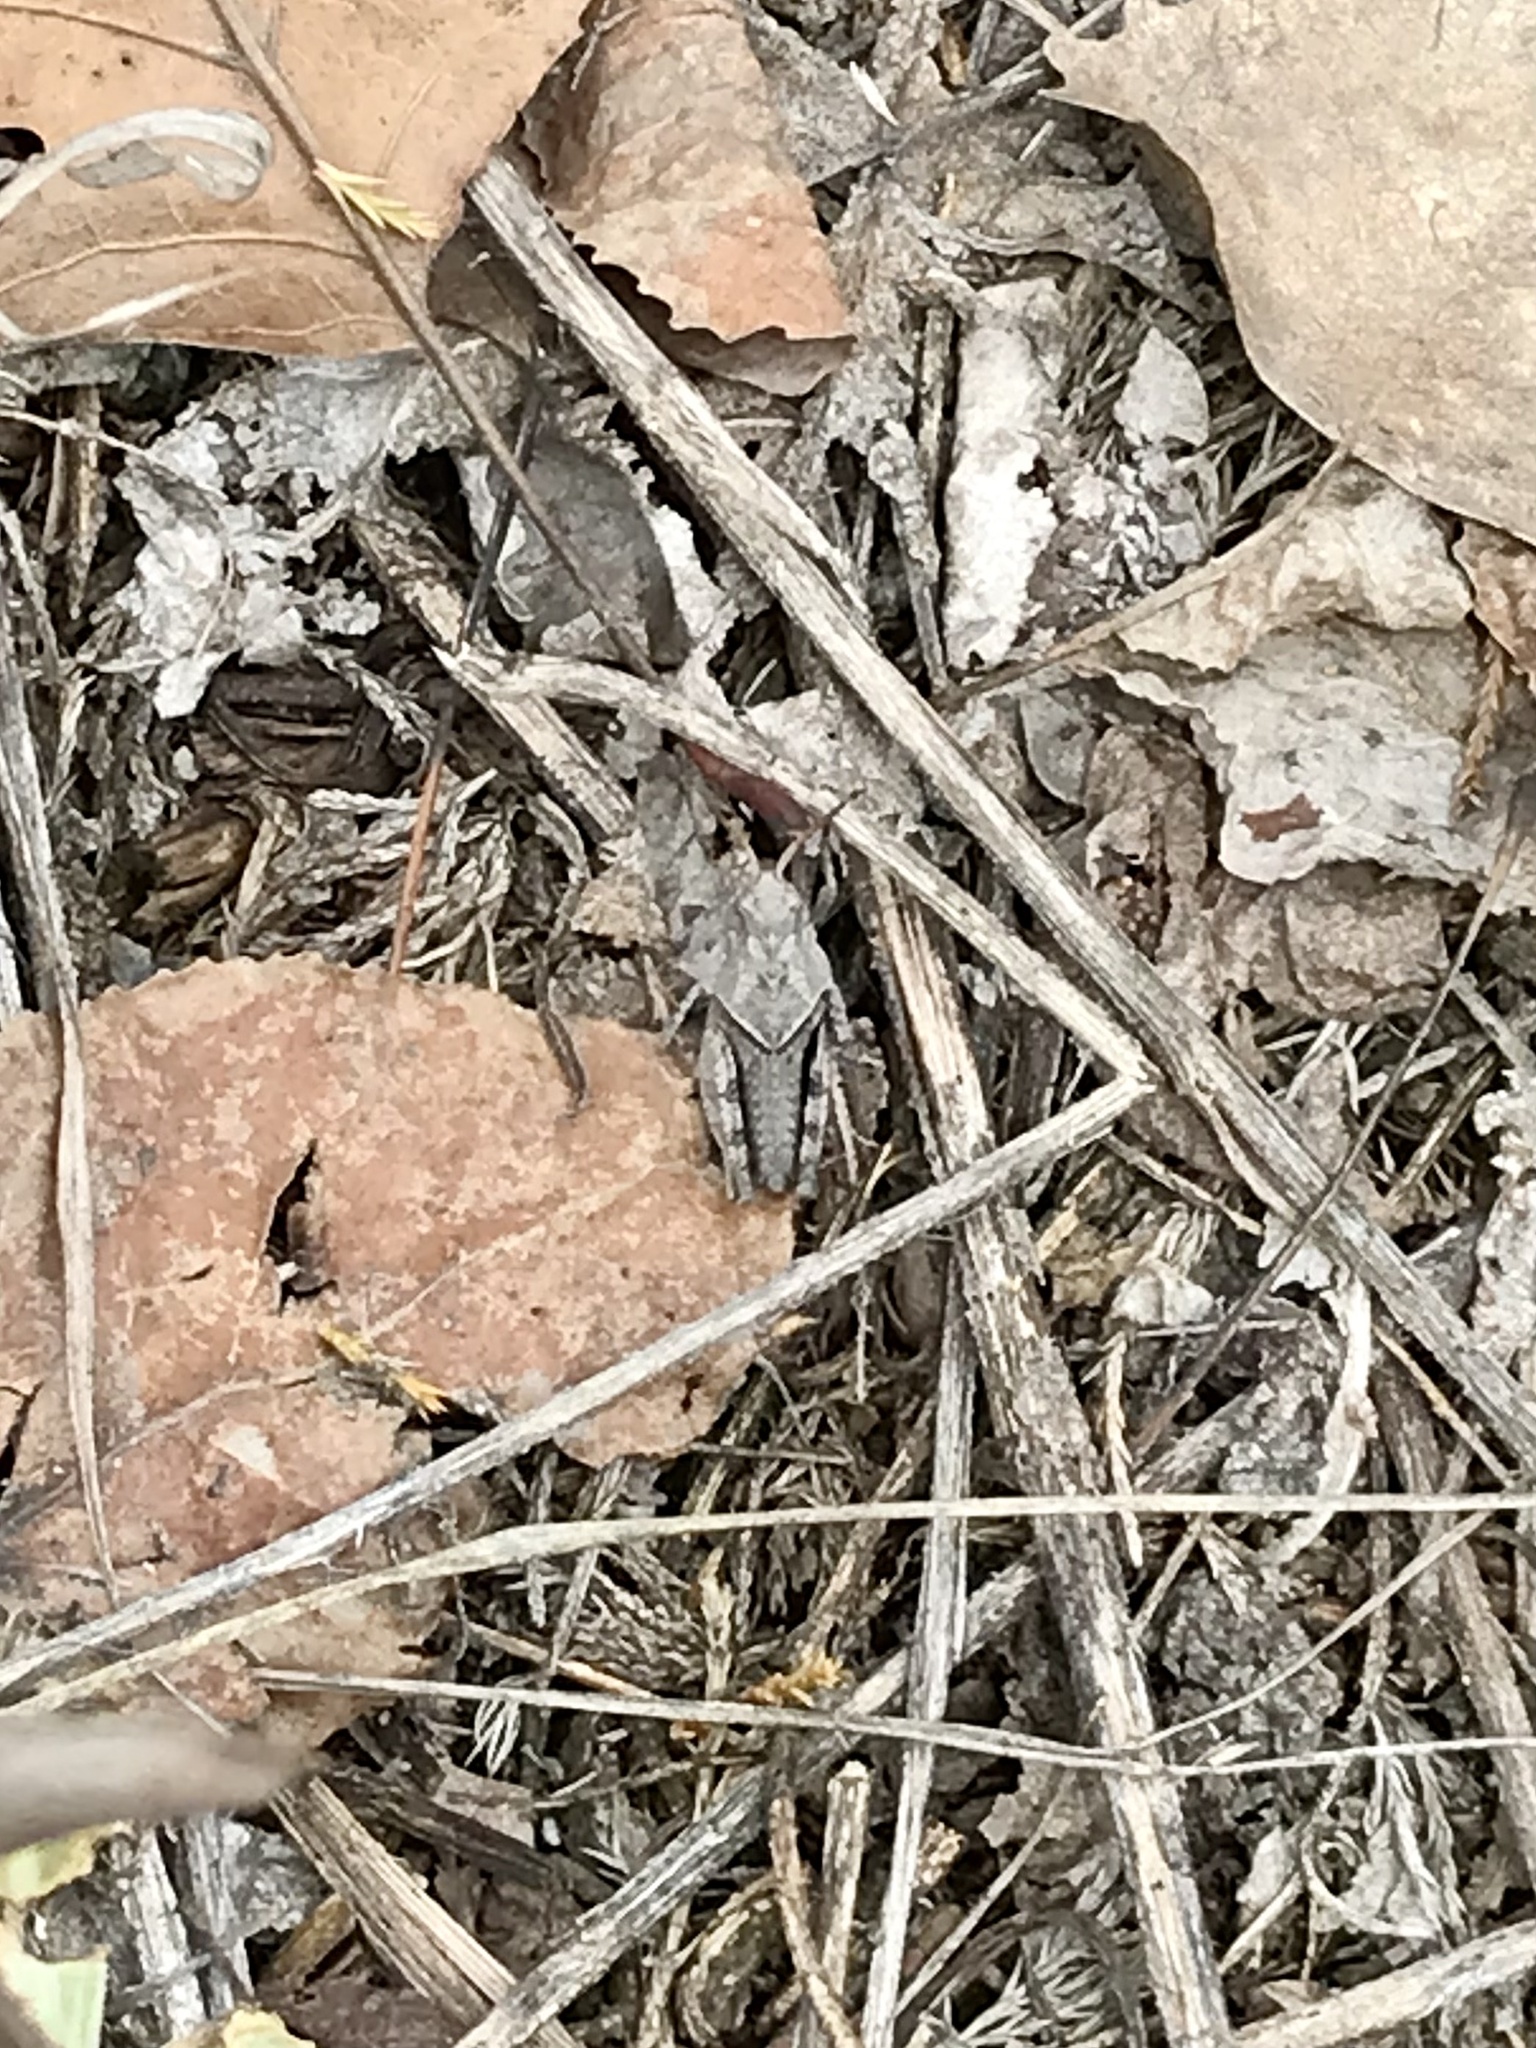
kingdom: Animalia
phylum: Arthropoda
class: Insecta
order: Orthoptera
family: Acrididae
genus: Pardalophora
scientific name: Pardalophora apiculata
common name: Coral-winged locust
